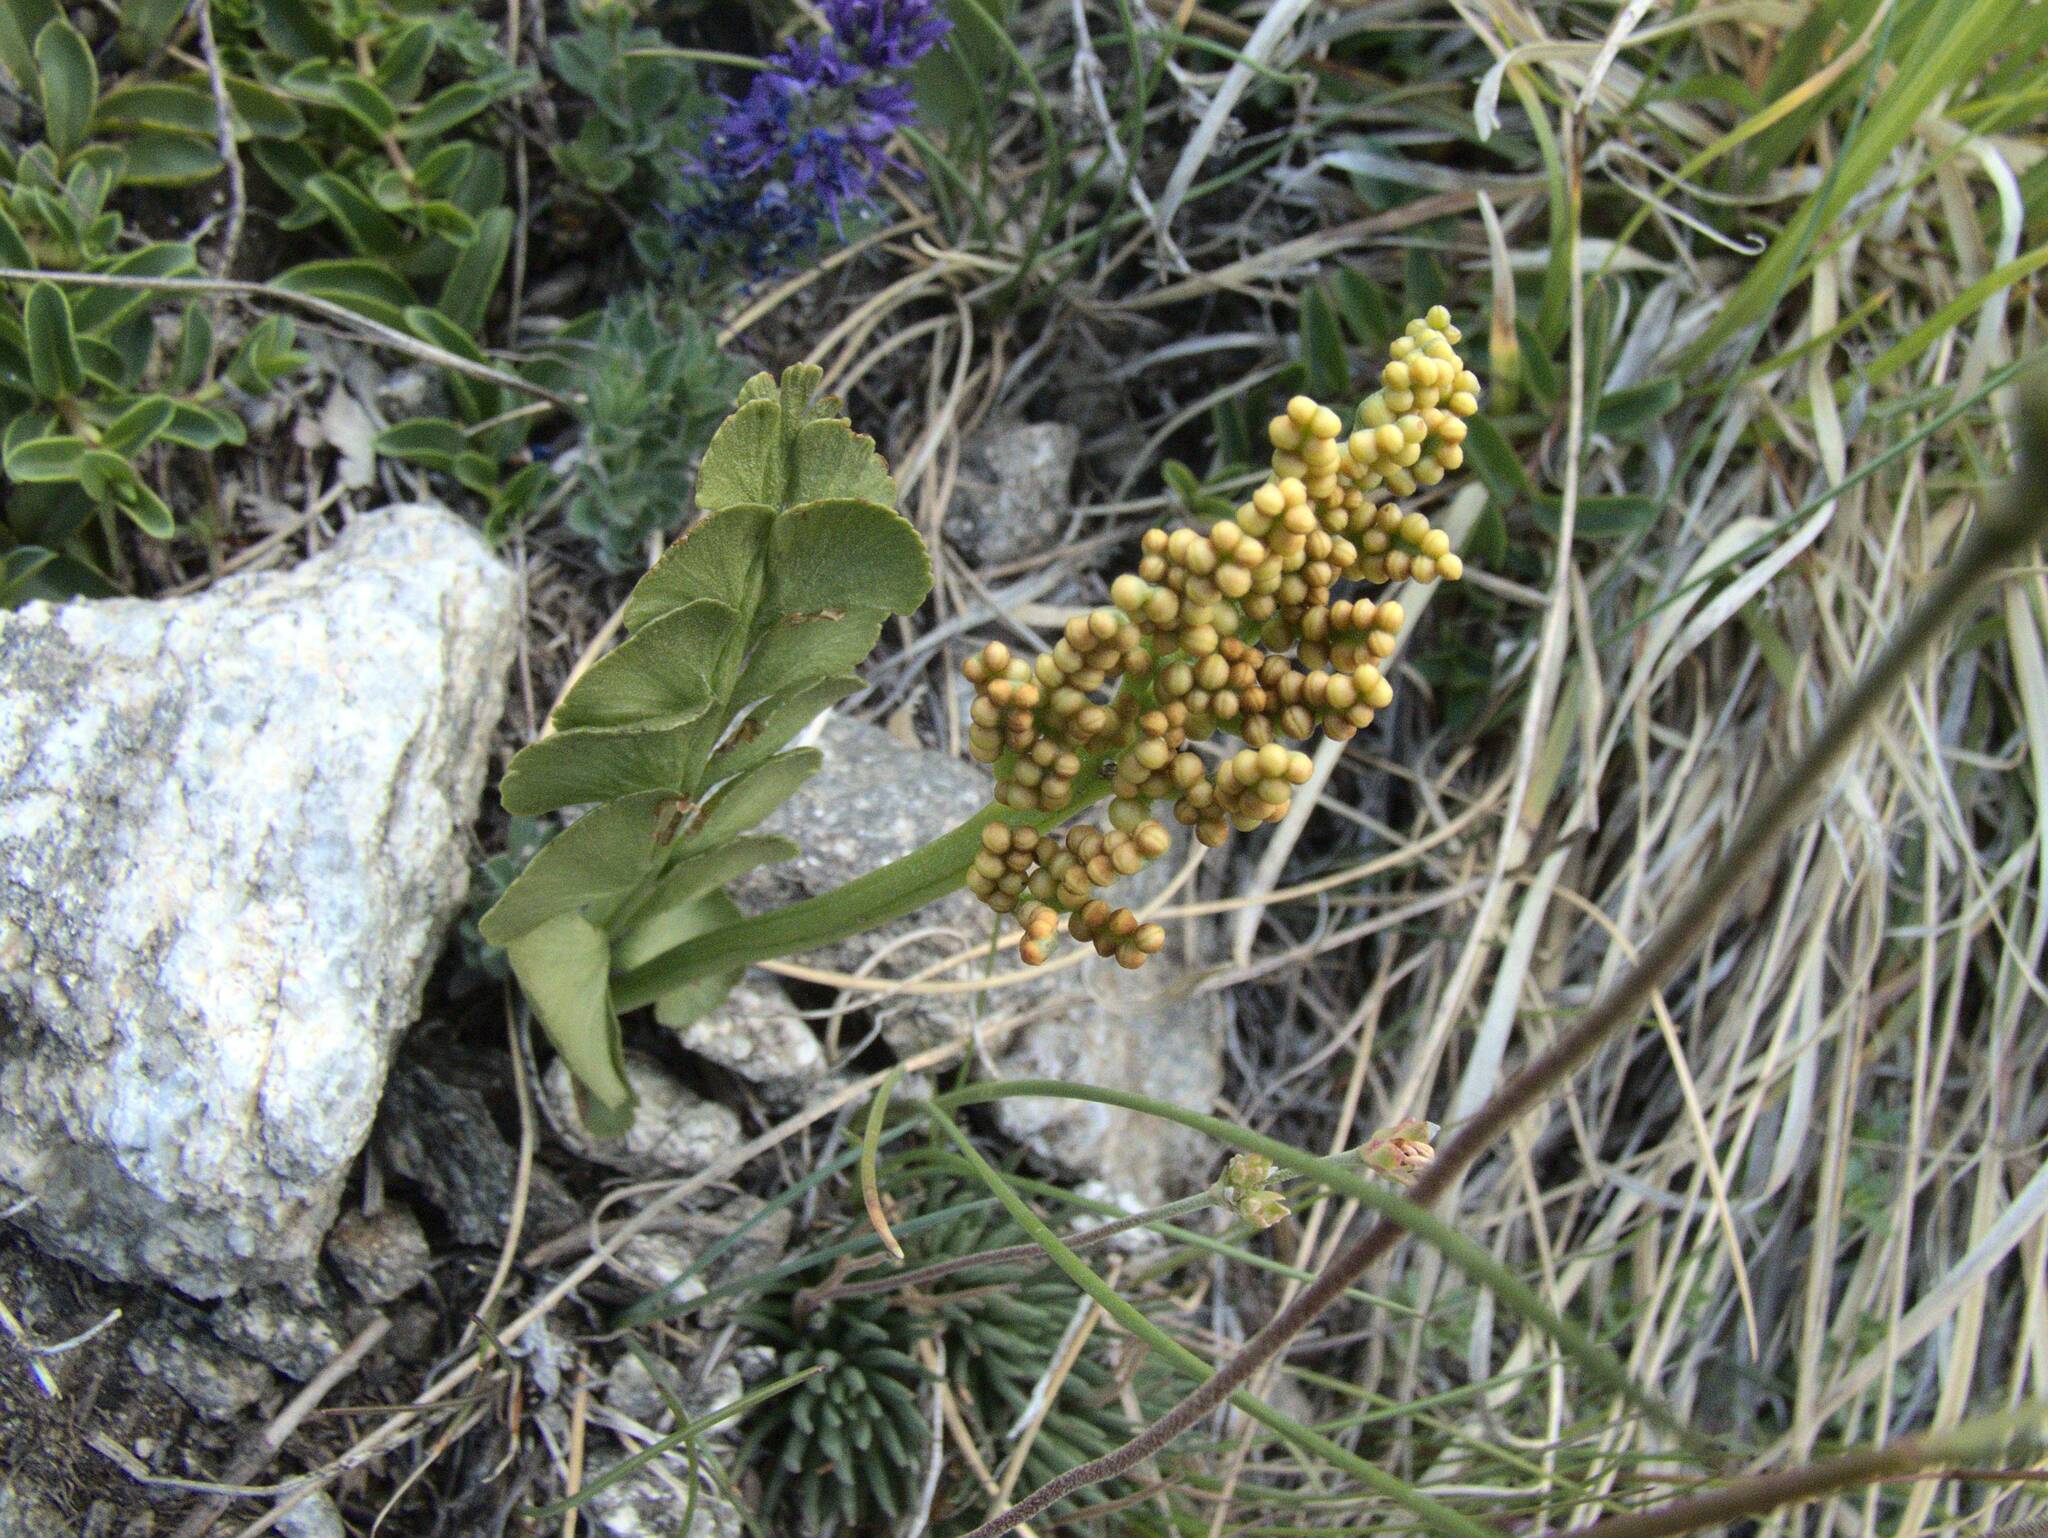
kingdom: Plantae
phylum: Tracheophyta
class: Polypodiopsida
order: Ophioglossales
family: Ophioglossaceae
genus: Botrychium
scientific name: Botrychium lunaria
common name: Moonwort
